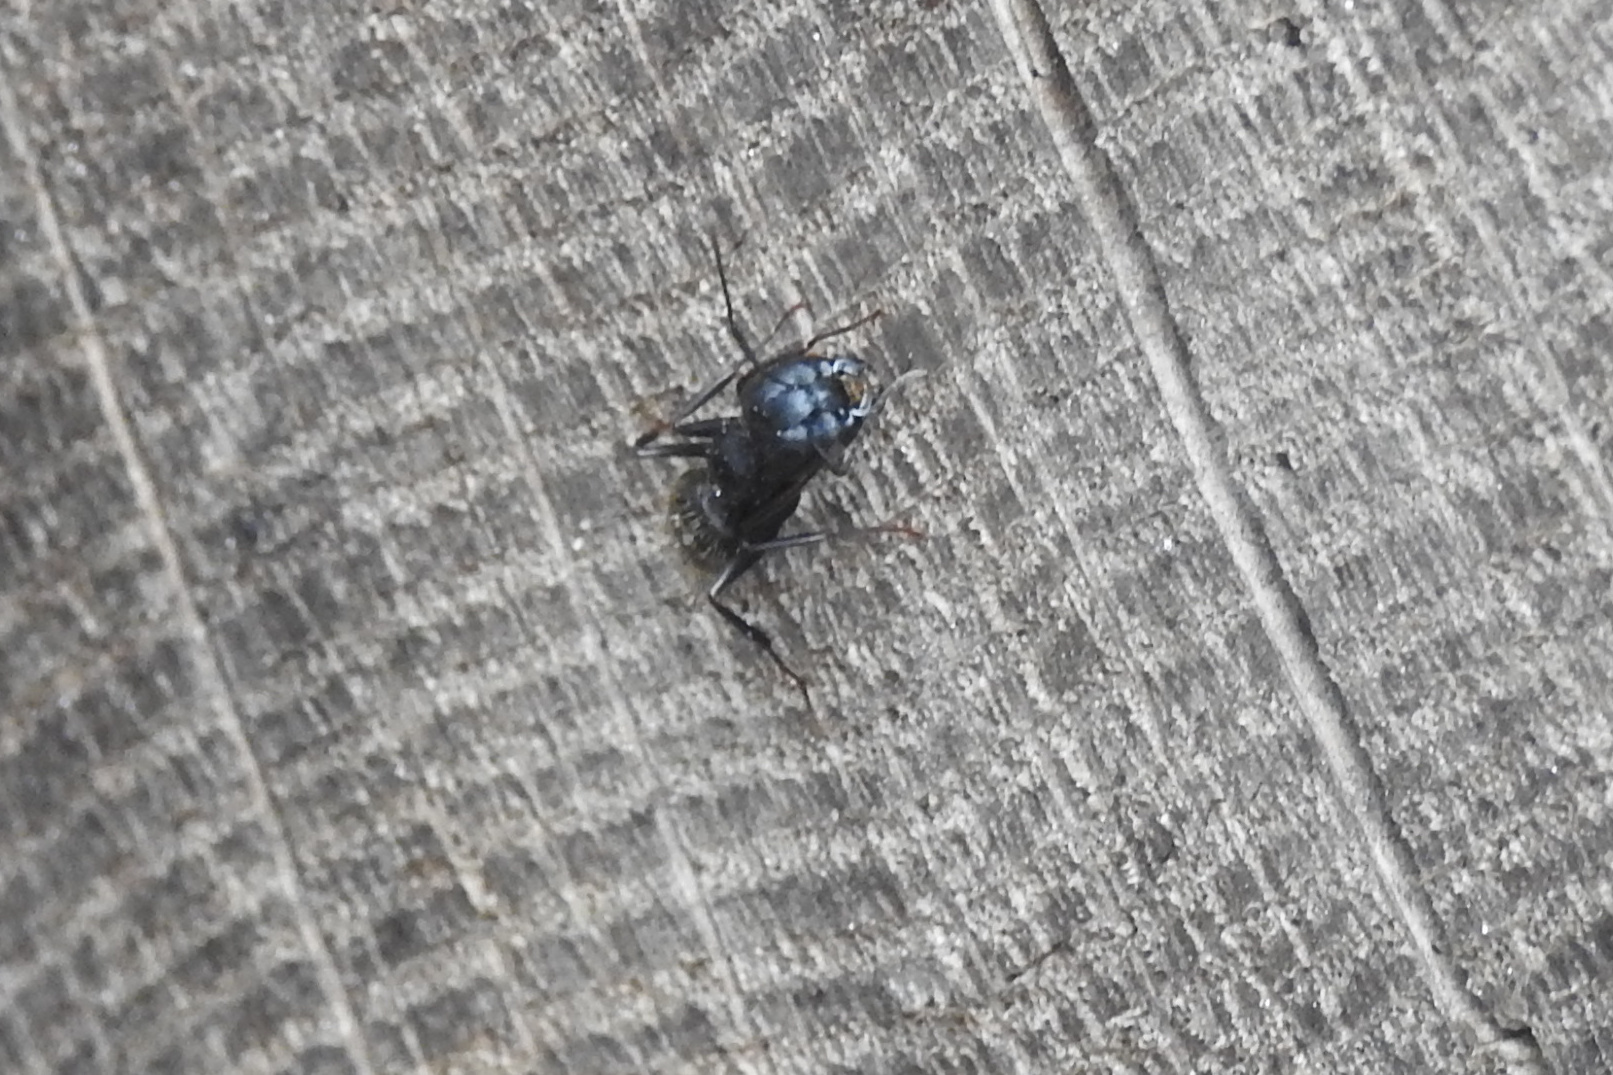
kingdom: Animalia
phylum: Arthropoda
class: Insecta
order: Hymenoptera
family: Formicidae
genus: Camponotus
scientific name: Camponotus pennsylvanicus
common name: Black carpenter ant
